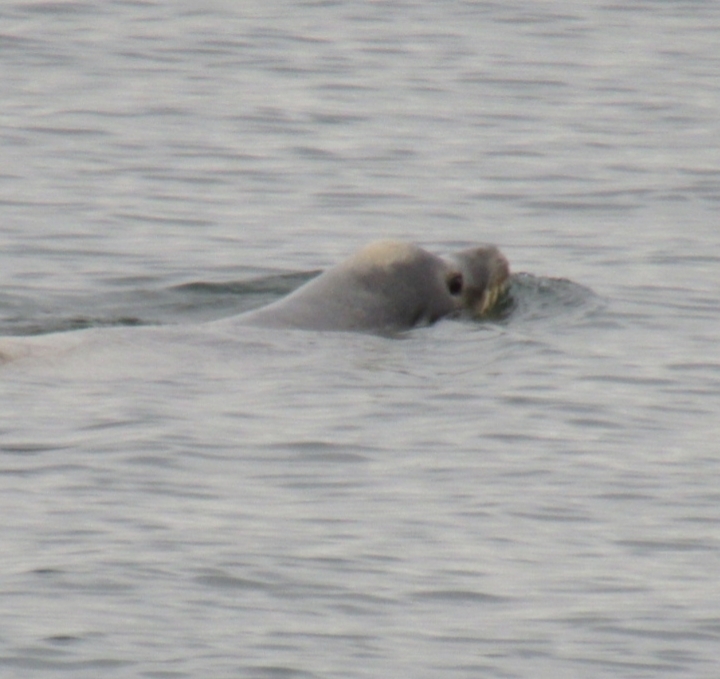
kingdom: Animalia
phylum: Chordata
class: Mammalia
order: Carnivora
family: Otariidae
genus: Zalophus
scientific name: Zalophus californianus
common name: California sea lion
